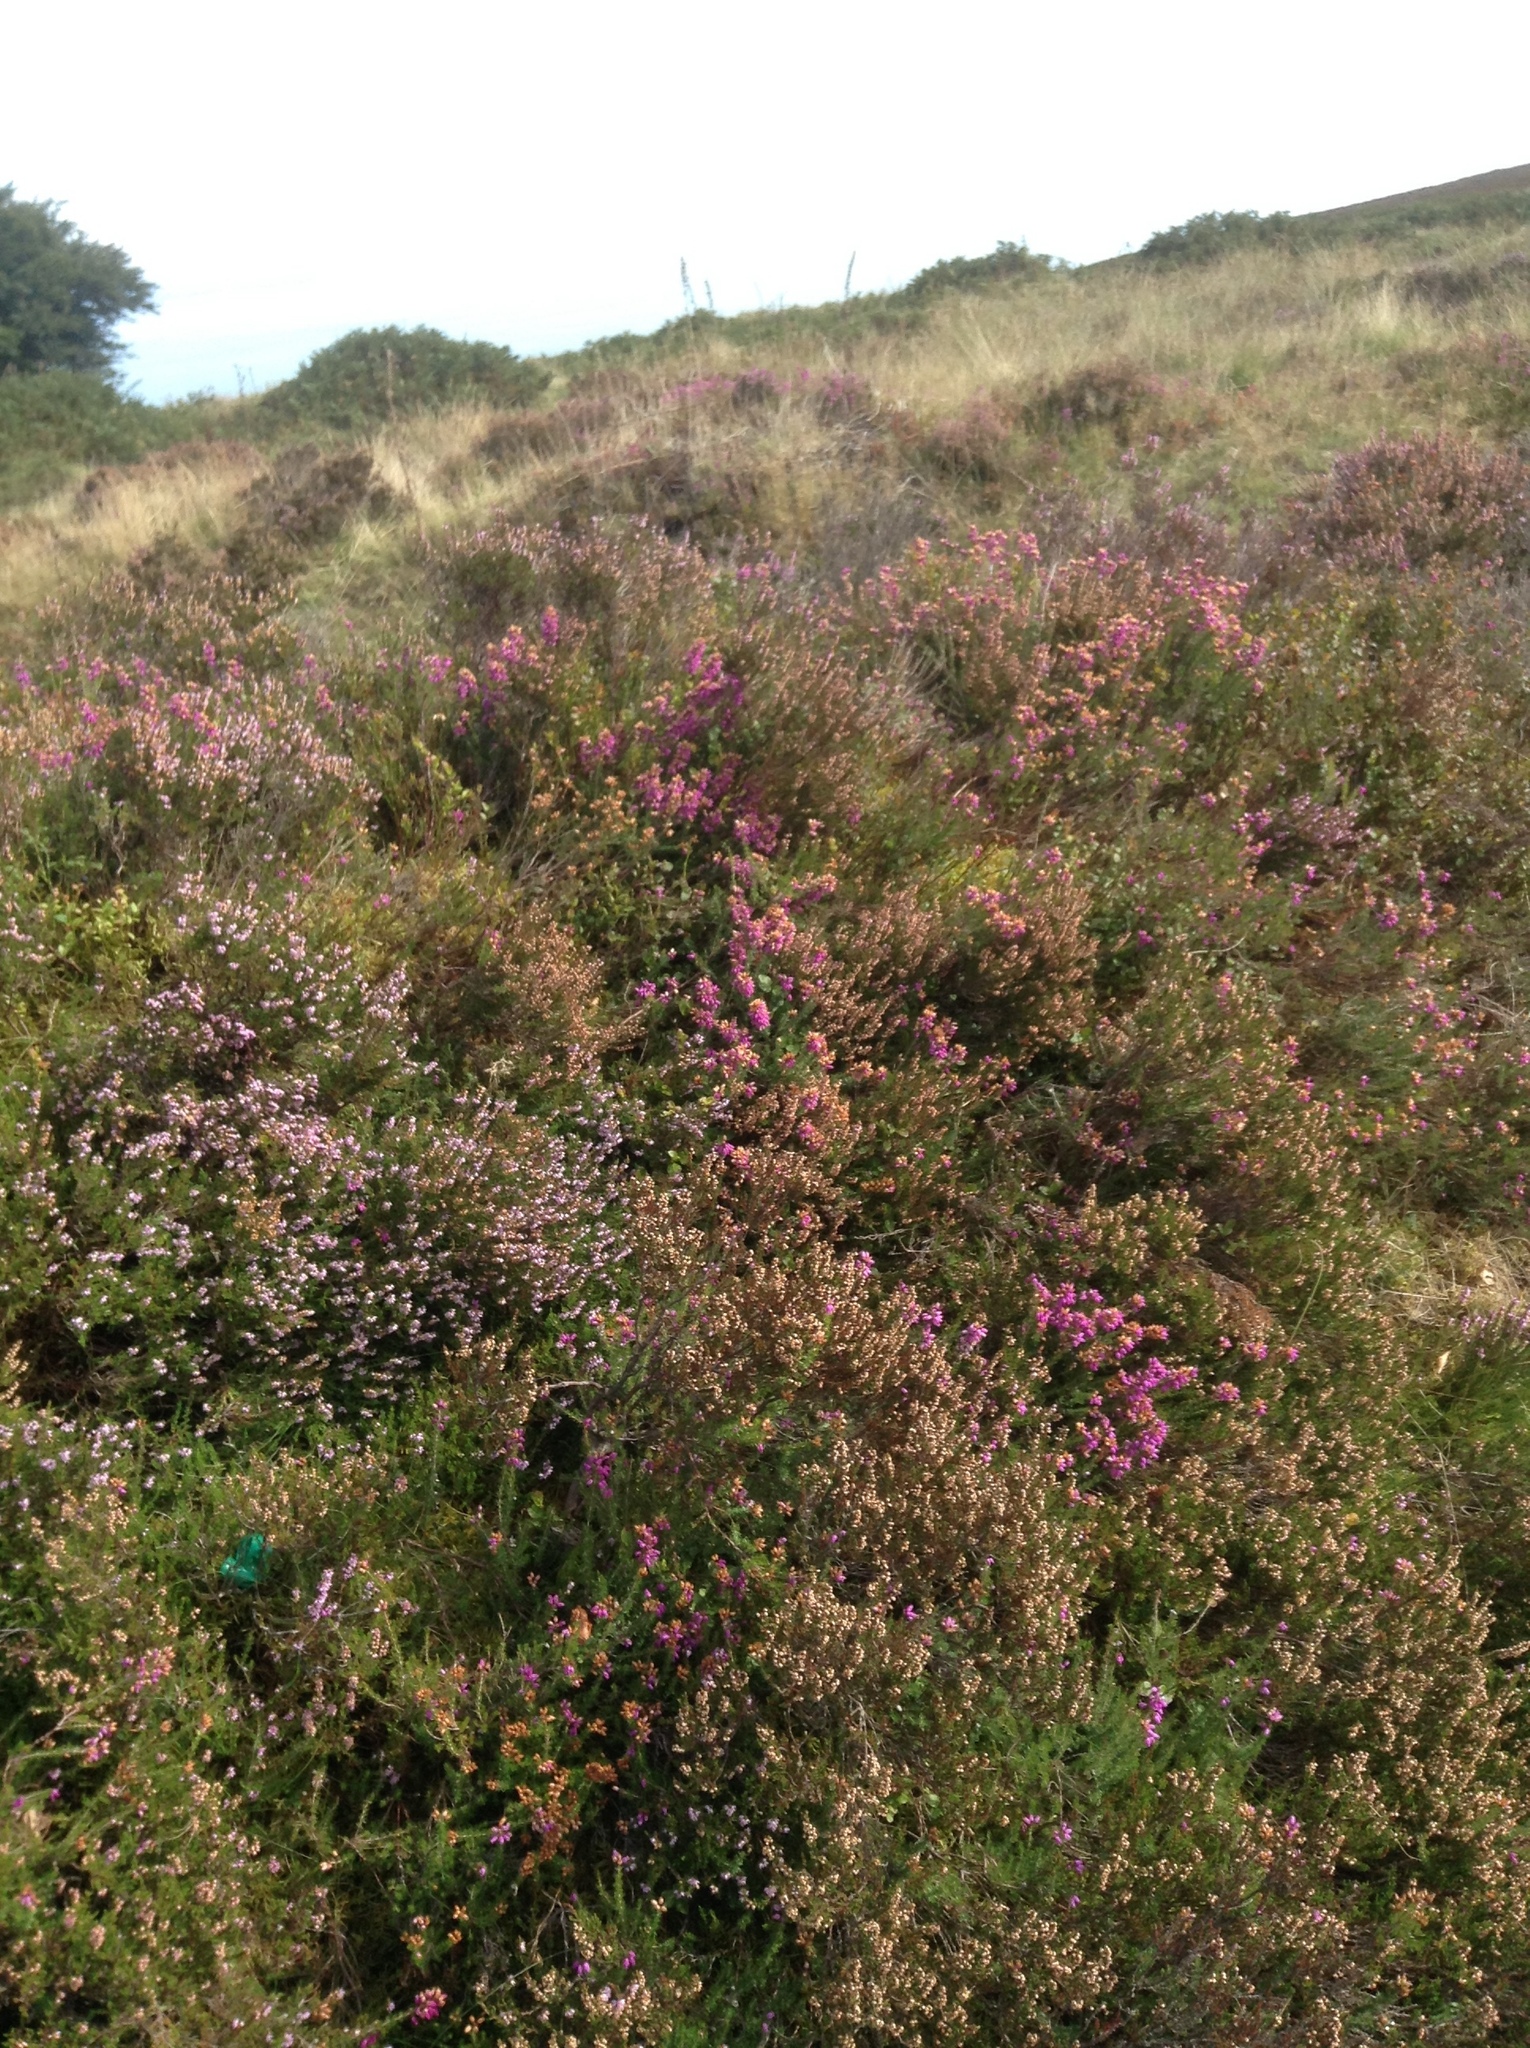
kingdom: Plantae
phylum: Tracheophyta
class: Magnoliopsida
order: Ericales
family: Ericaceae
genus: Calluna
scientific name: Calluna vulgaris
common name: Heather
